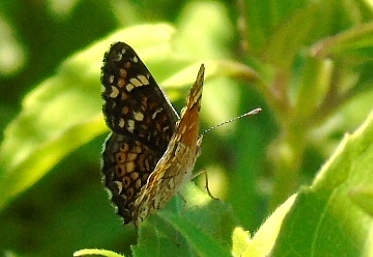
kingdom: Animalia
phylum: Arthropoda
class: Insecta
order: Lepidoptera
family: Nymphalidae
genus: Phyciodes
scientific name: Phyciodes
